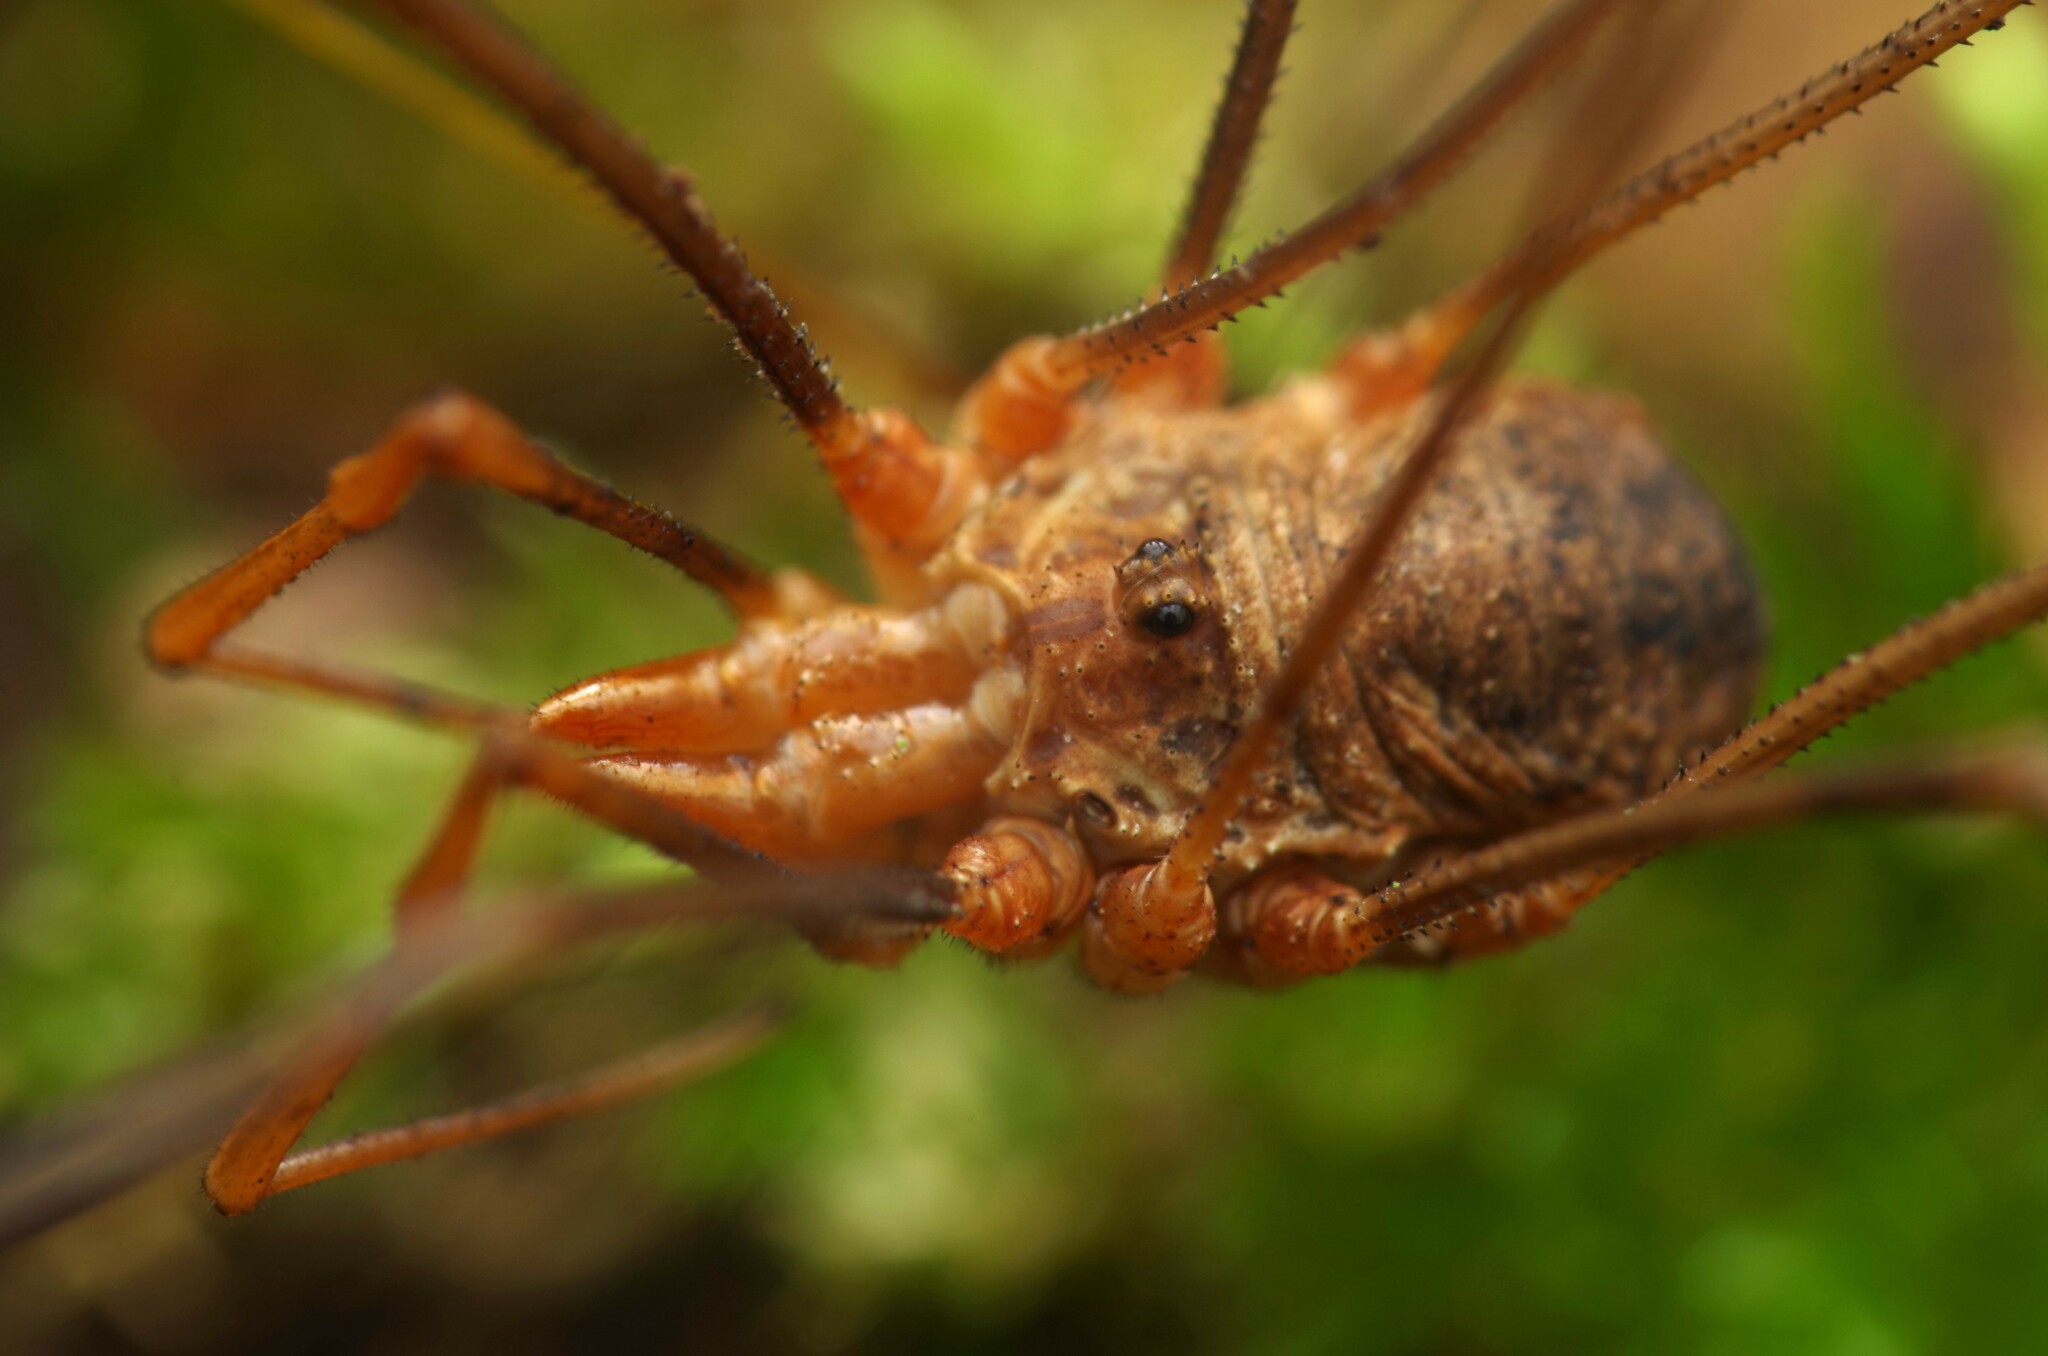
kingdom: Animalia
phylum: Arthropoda
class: Arachnida
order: Opiliones
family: Phalangiidae
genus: Phalangium
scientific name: Phalangium opilio
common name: Daddy longleg
